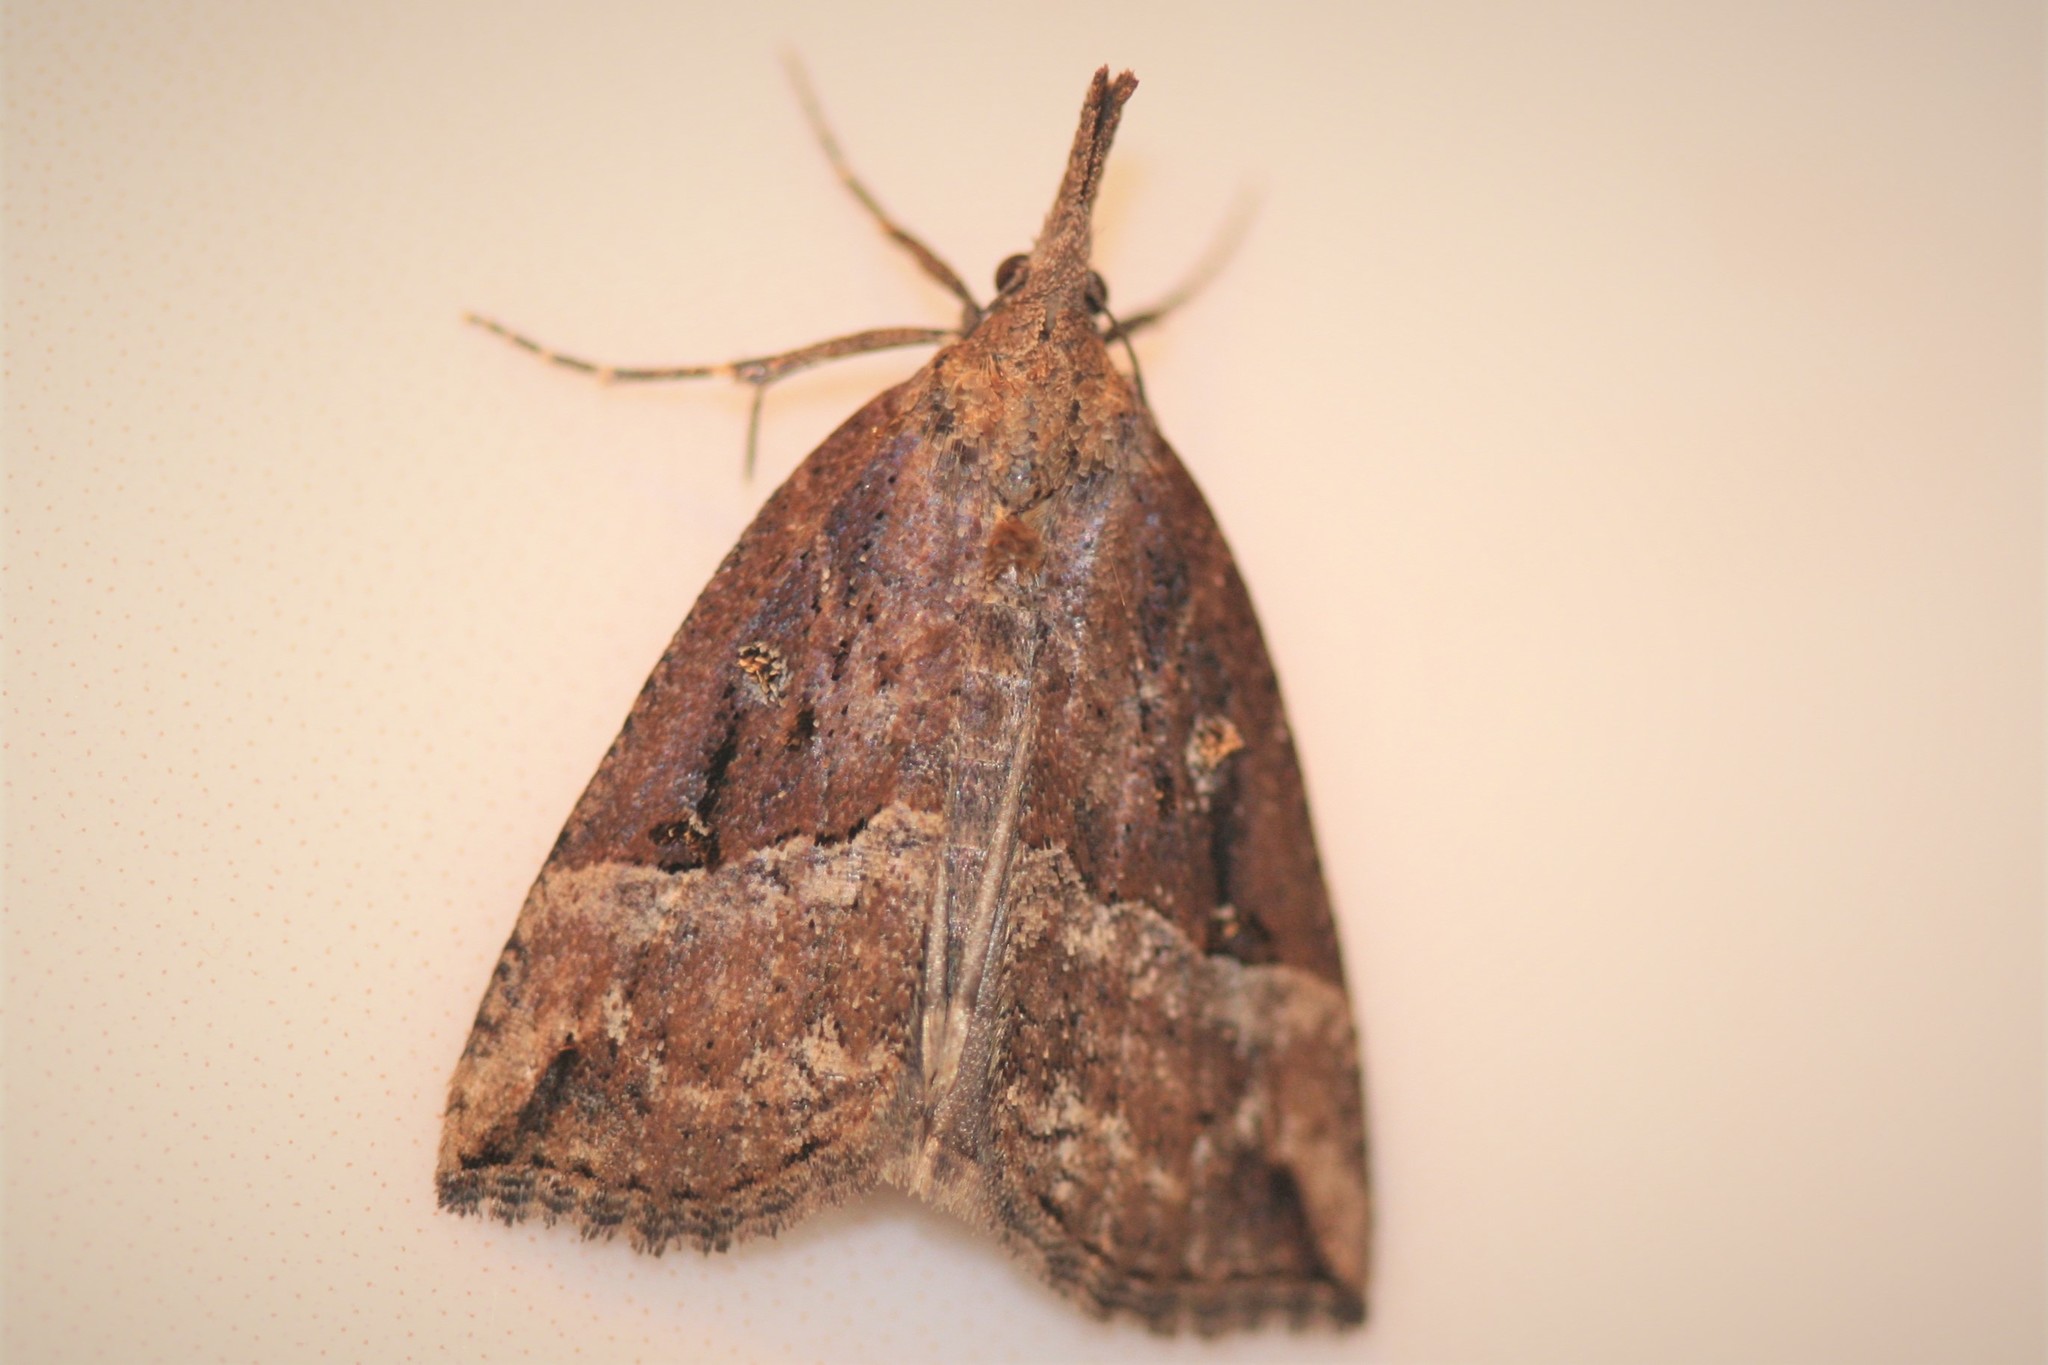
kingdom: Animalia
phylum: Arthropoda
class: Insecta
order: Lepidoptera
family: Erebidae
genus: Hypena
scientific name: Hypena rostralis
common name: Buttoned snout
